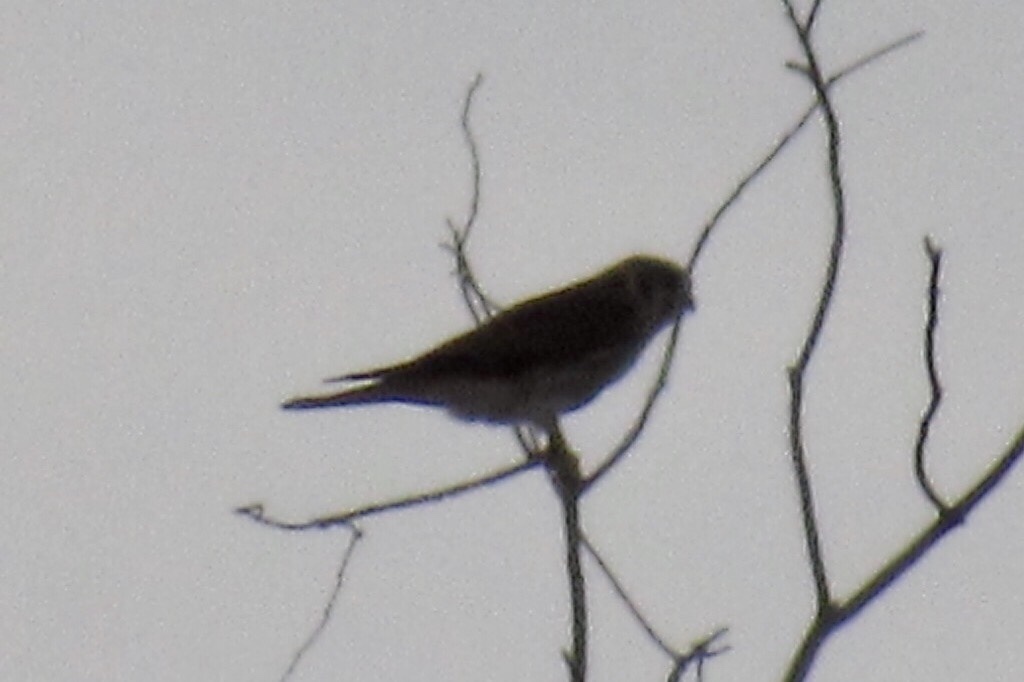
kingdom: Animalia
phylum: Chordata
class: Aves
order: Falconiformes
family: Falconidae
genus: Falco
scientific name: Falco sparverius
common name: American kestrel
